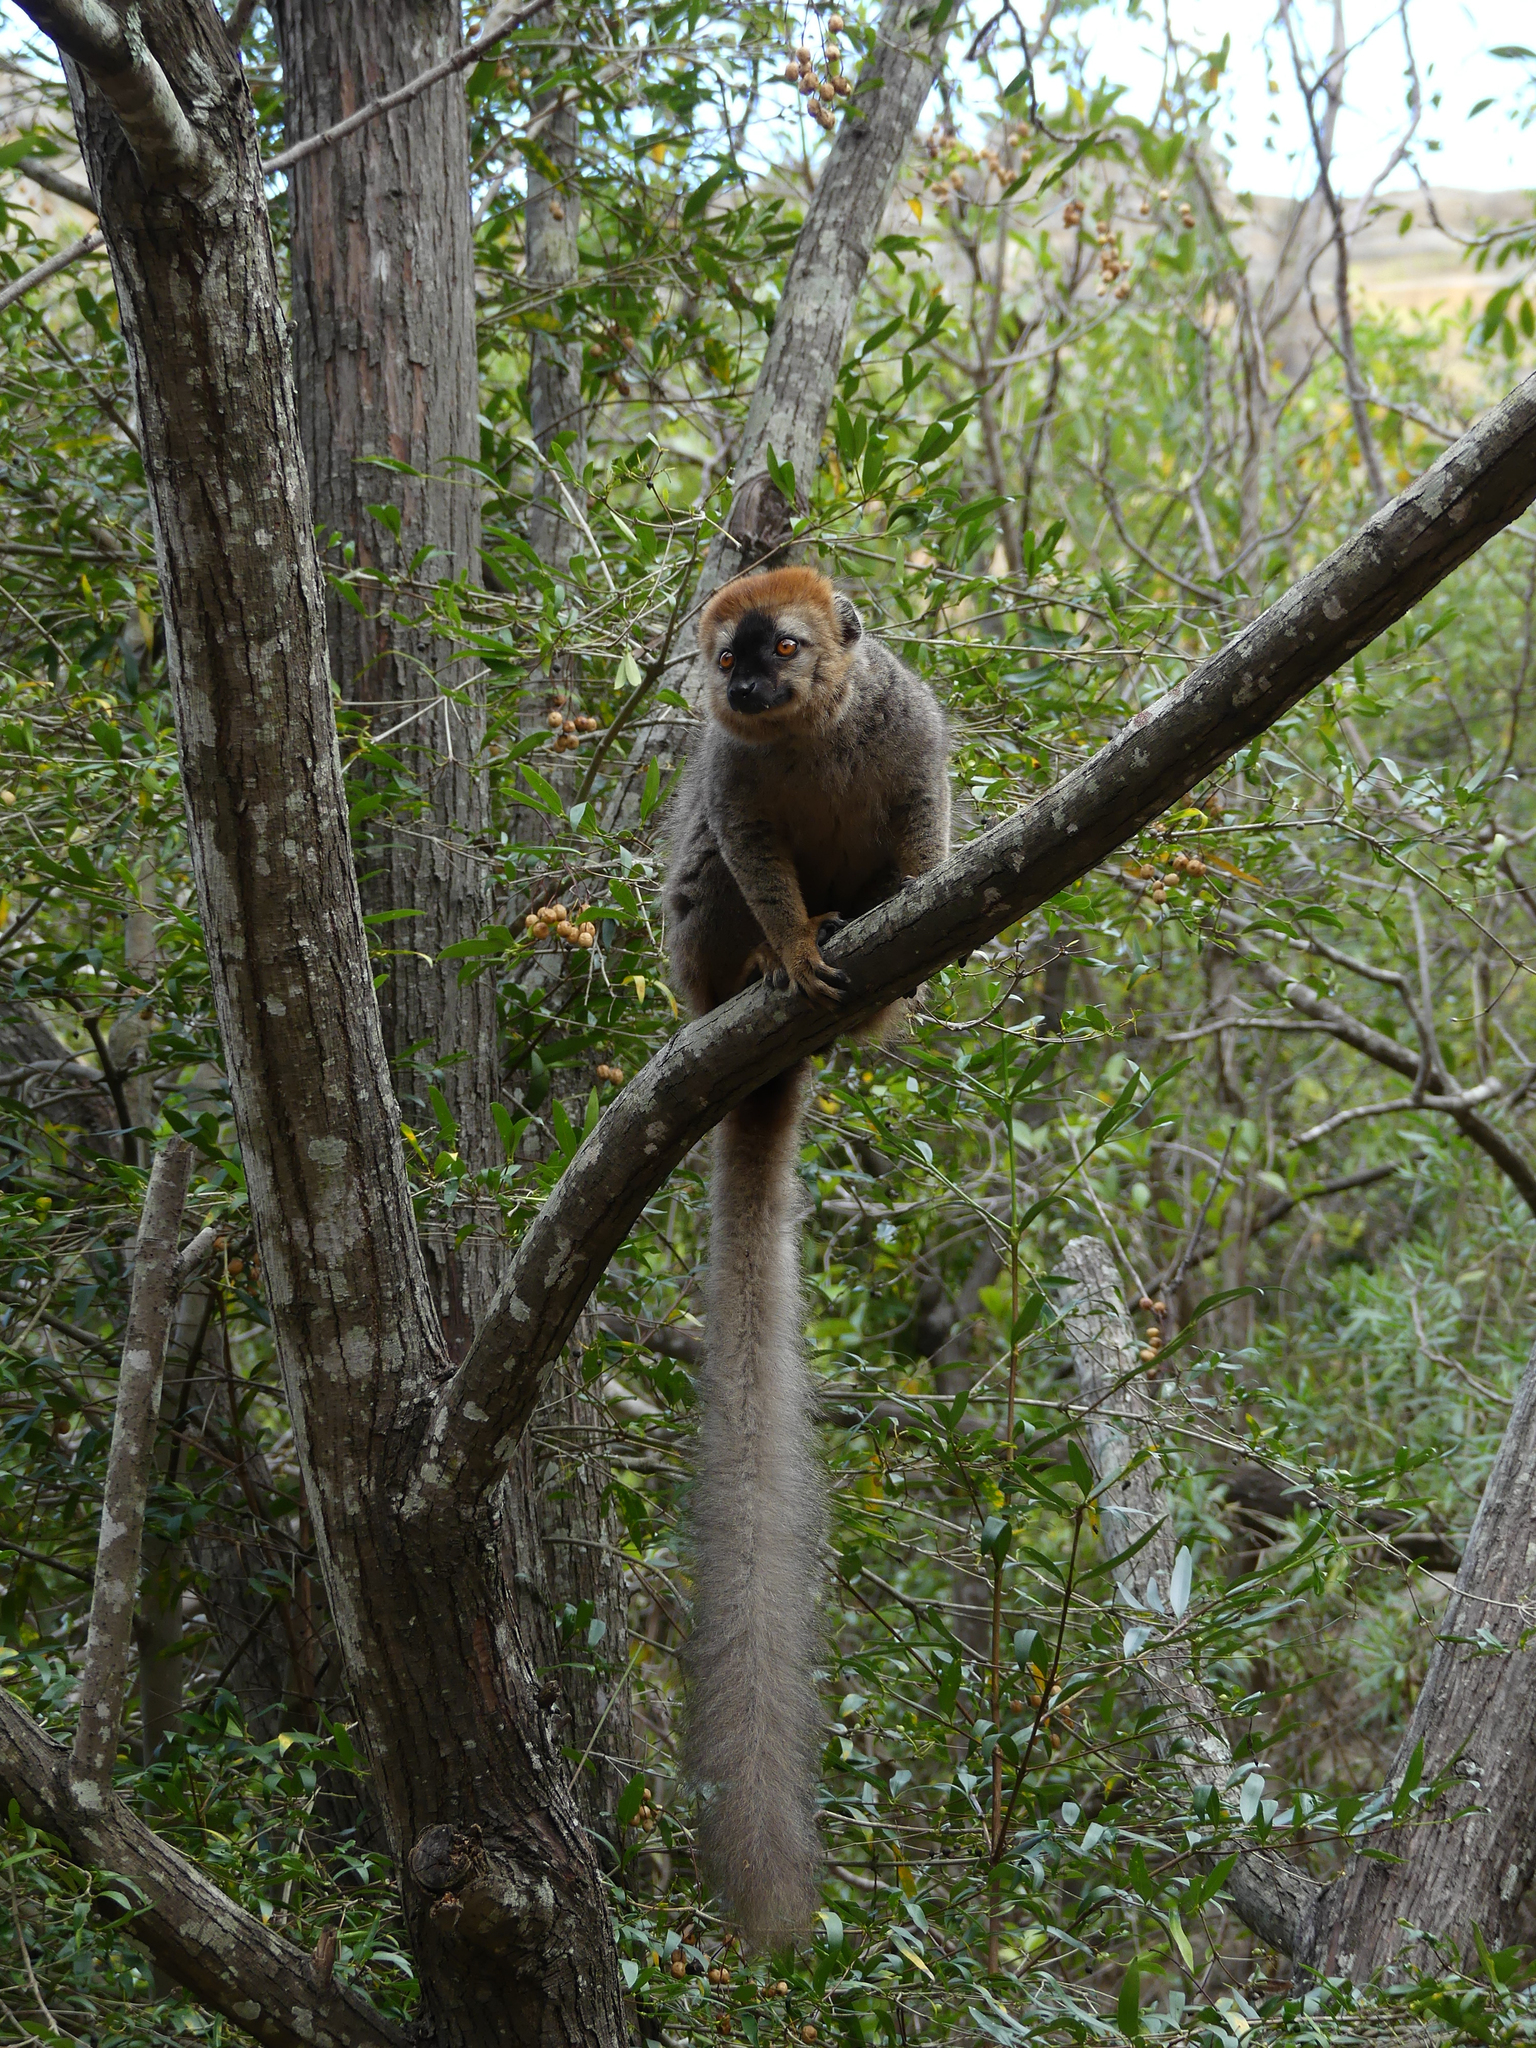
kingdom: Animalia
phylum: Chordata
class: Mammalia
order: Primates
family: Lemuridae
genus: Eulemur
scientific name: Eulemur rufifrons
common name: Red-fronted brown lemur
